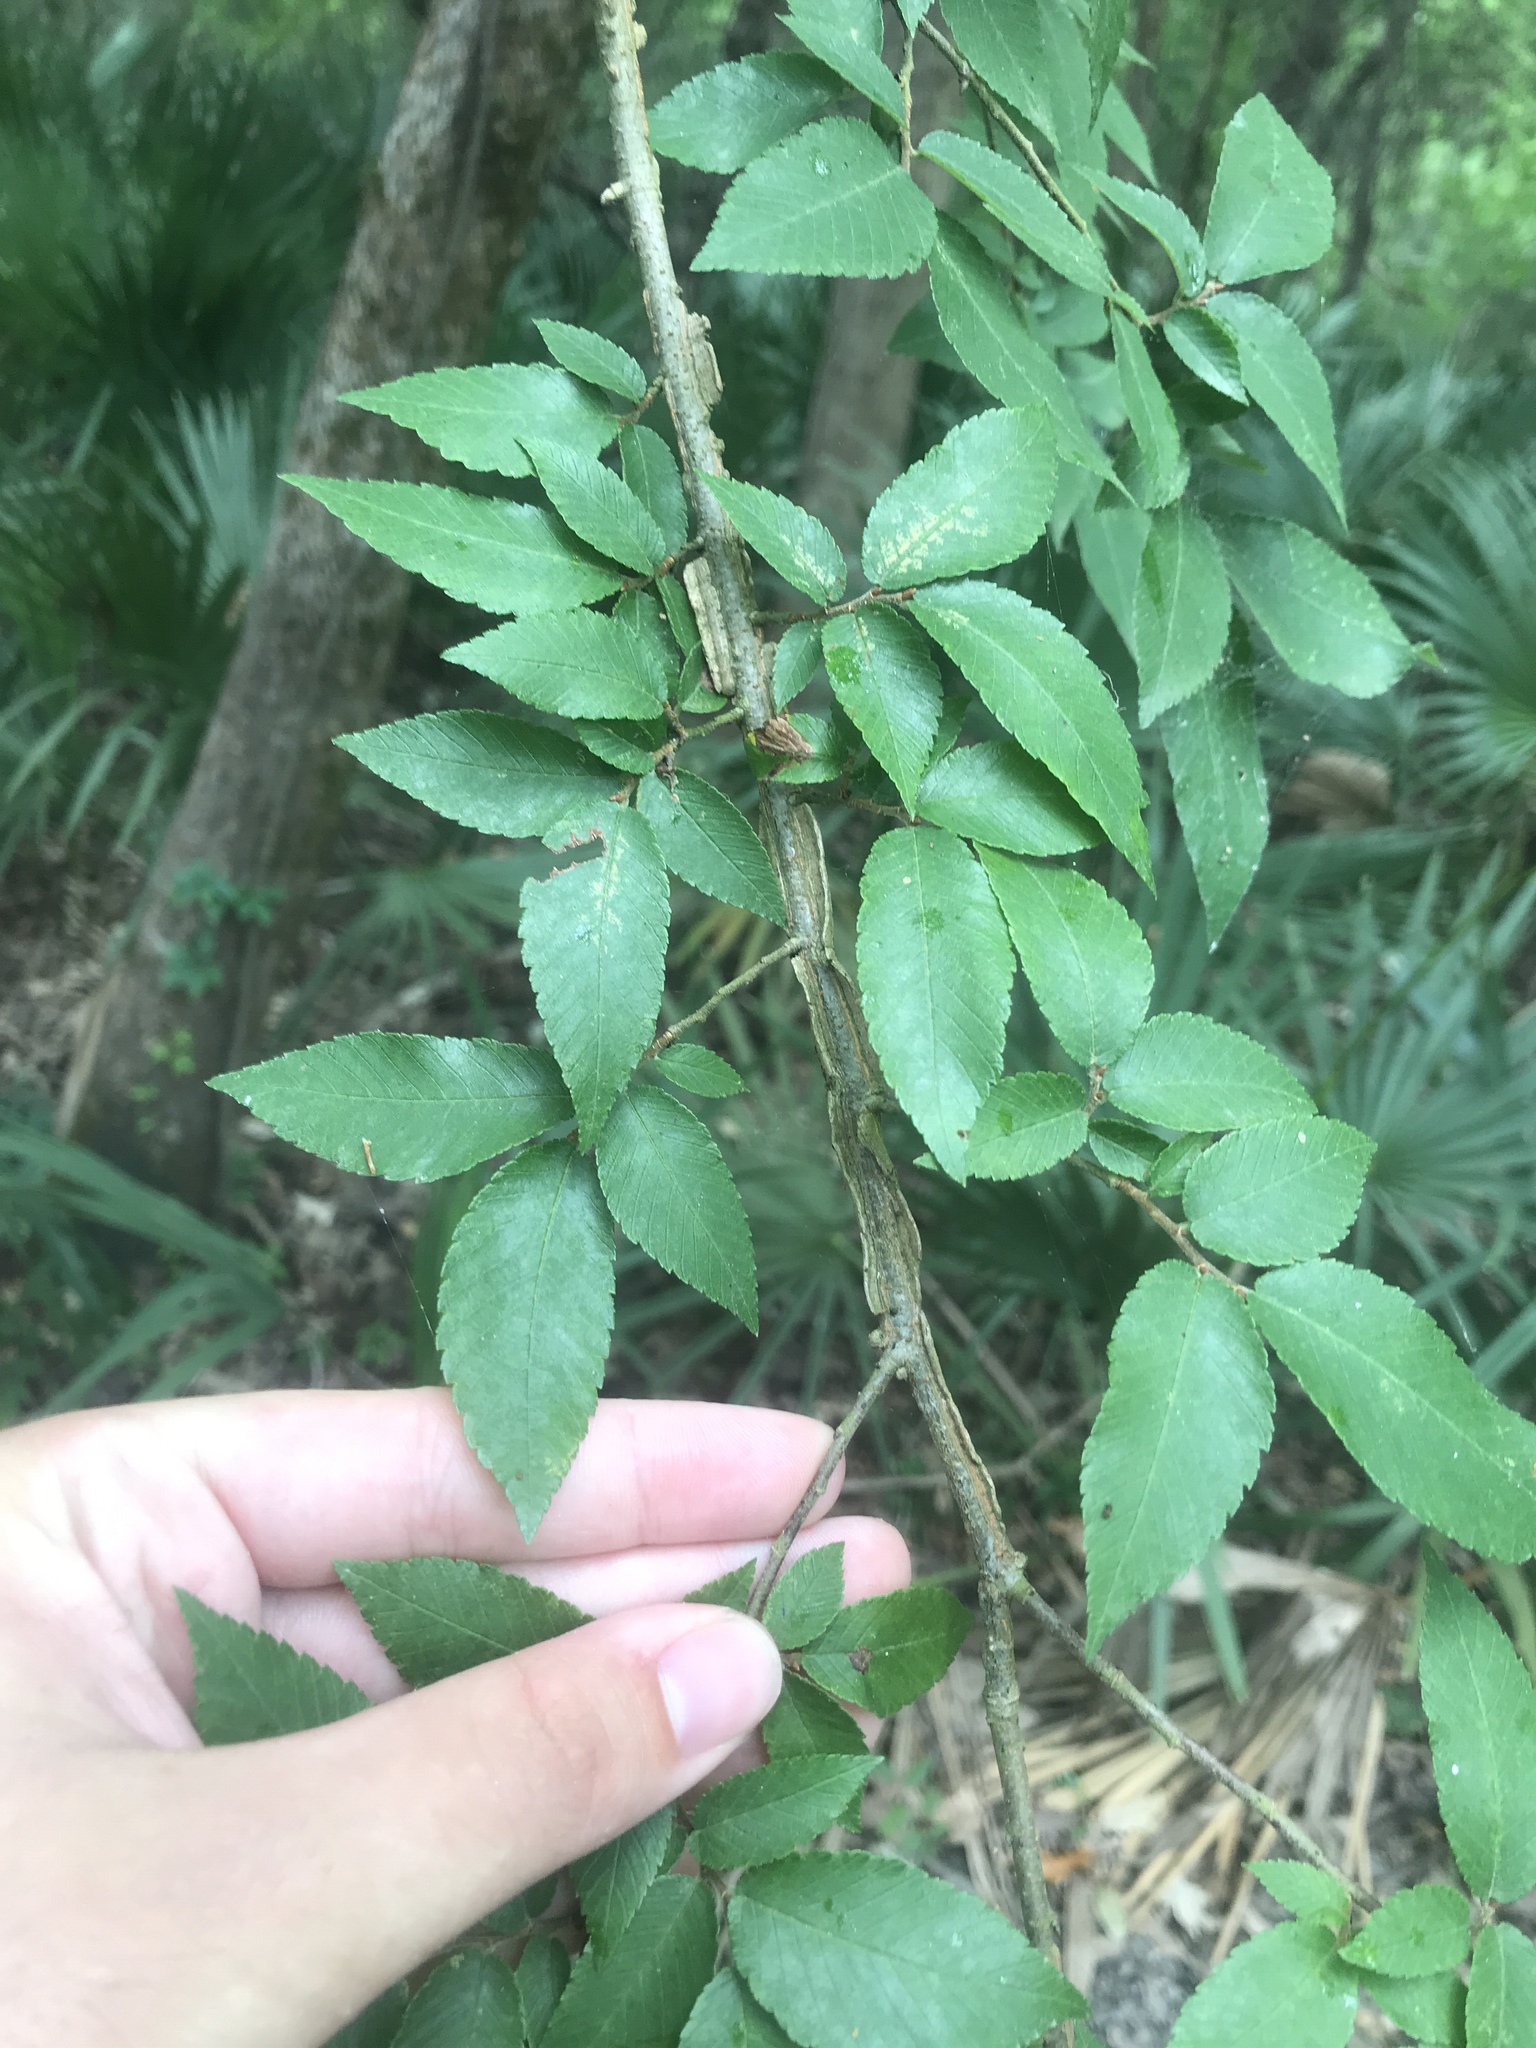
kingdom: Plantae
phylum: Tracheophyta
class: Magnoliopsida
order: Rosales
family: Ulmaceae
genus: Ulmus
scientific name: Ulmus alata
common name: Winged elm
